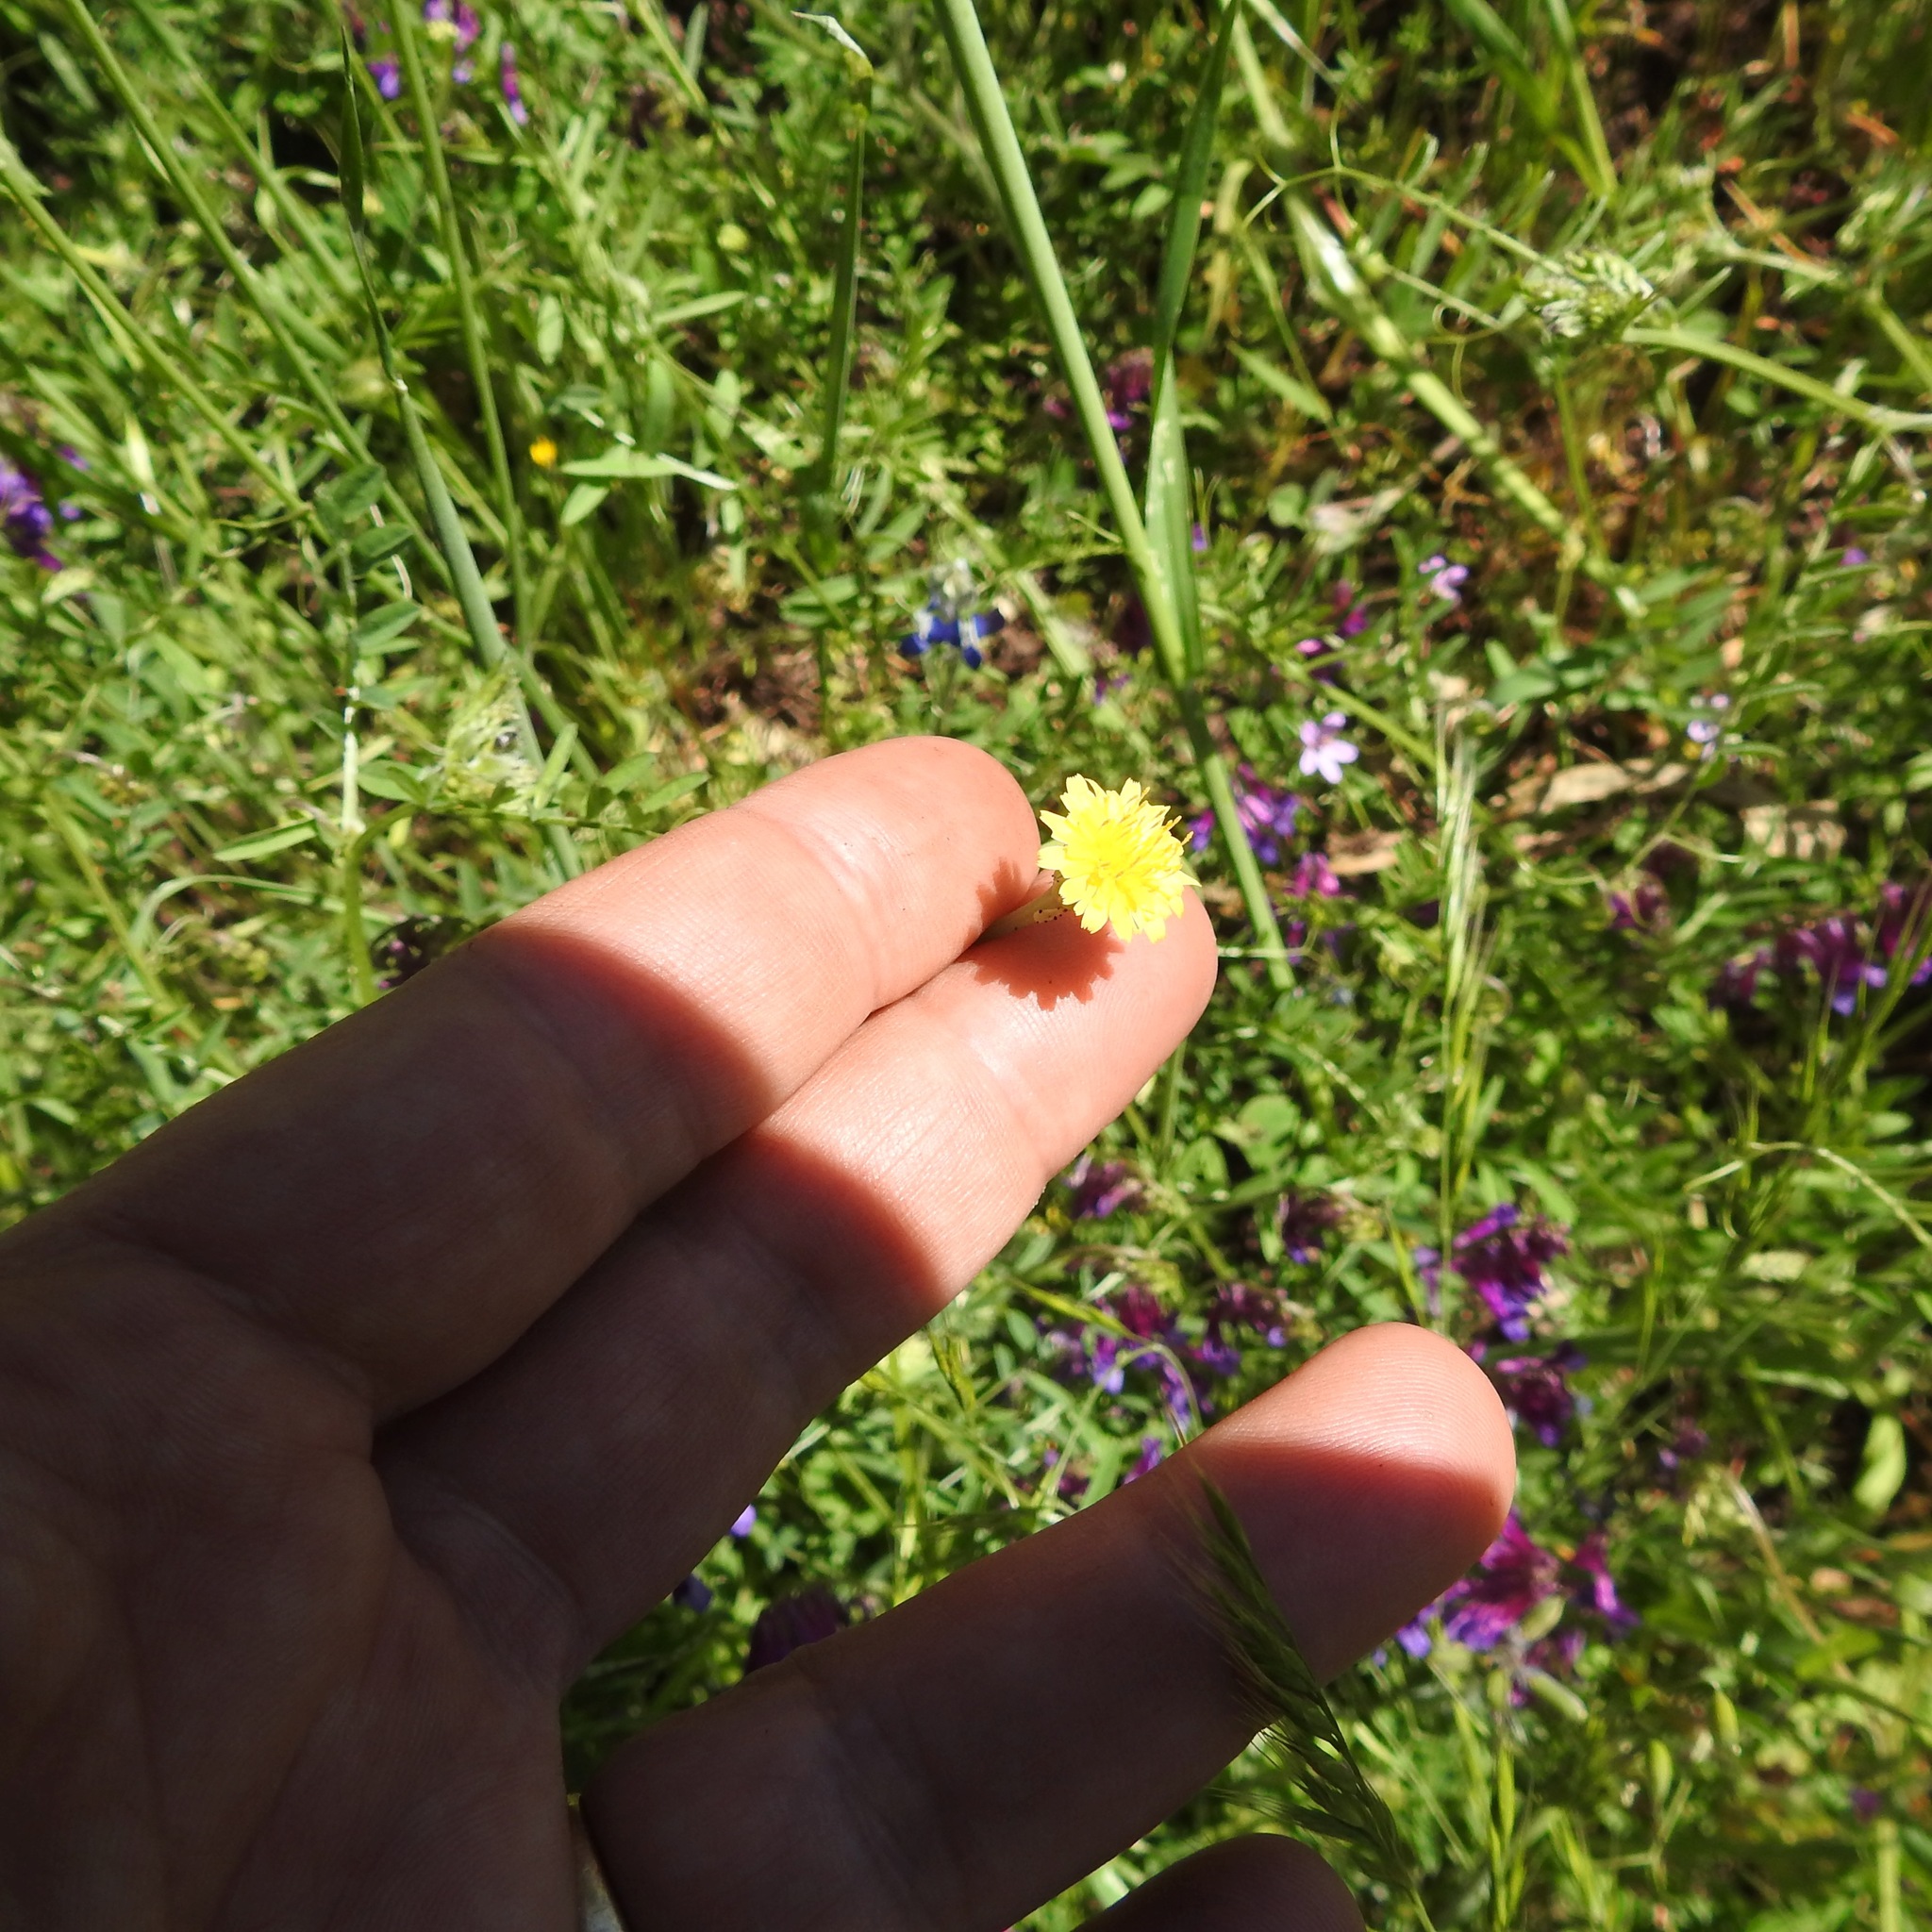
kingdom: Plantae
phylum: Tracheophyta
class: Magnoliopsida
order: Asterales
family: Asteraceae
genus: Hypochaeris
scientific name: Hypochaeris glabra
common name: Smooth catsear
